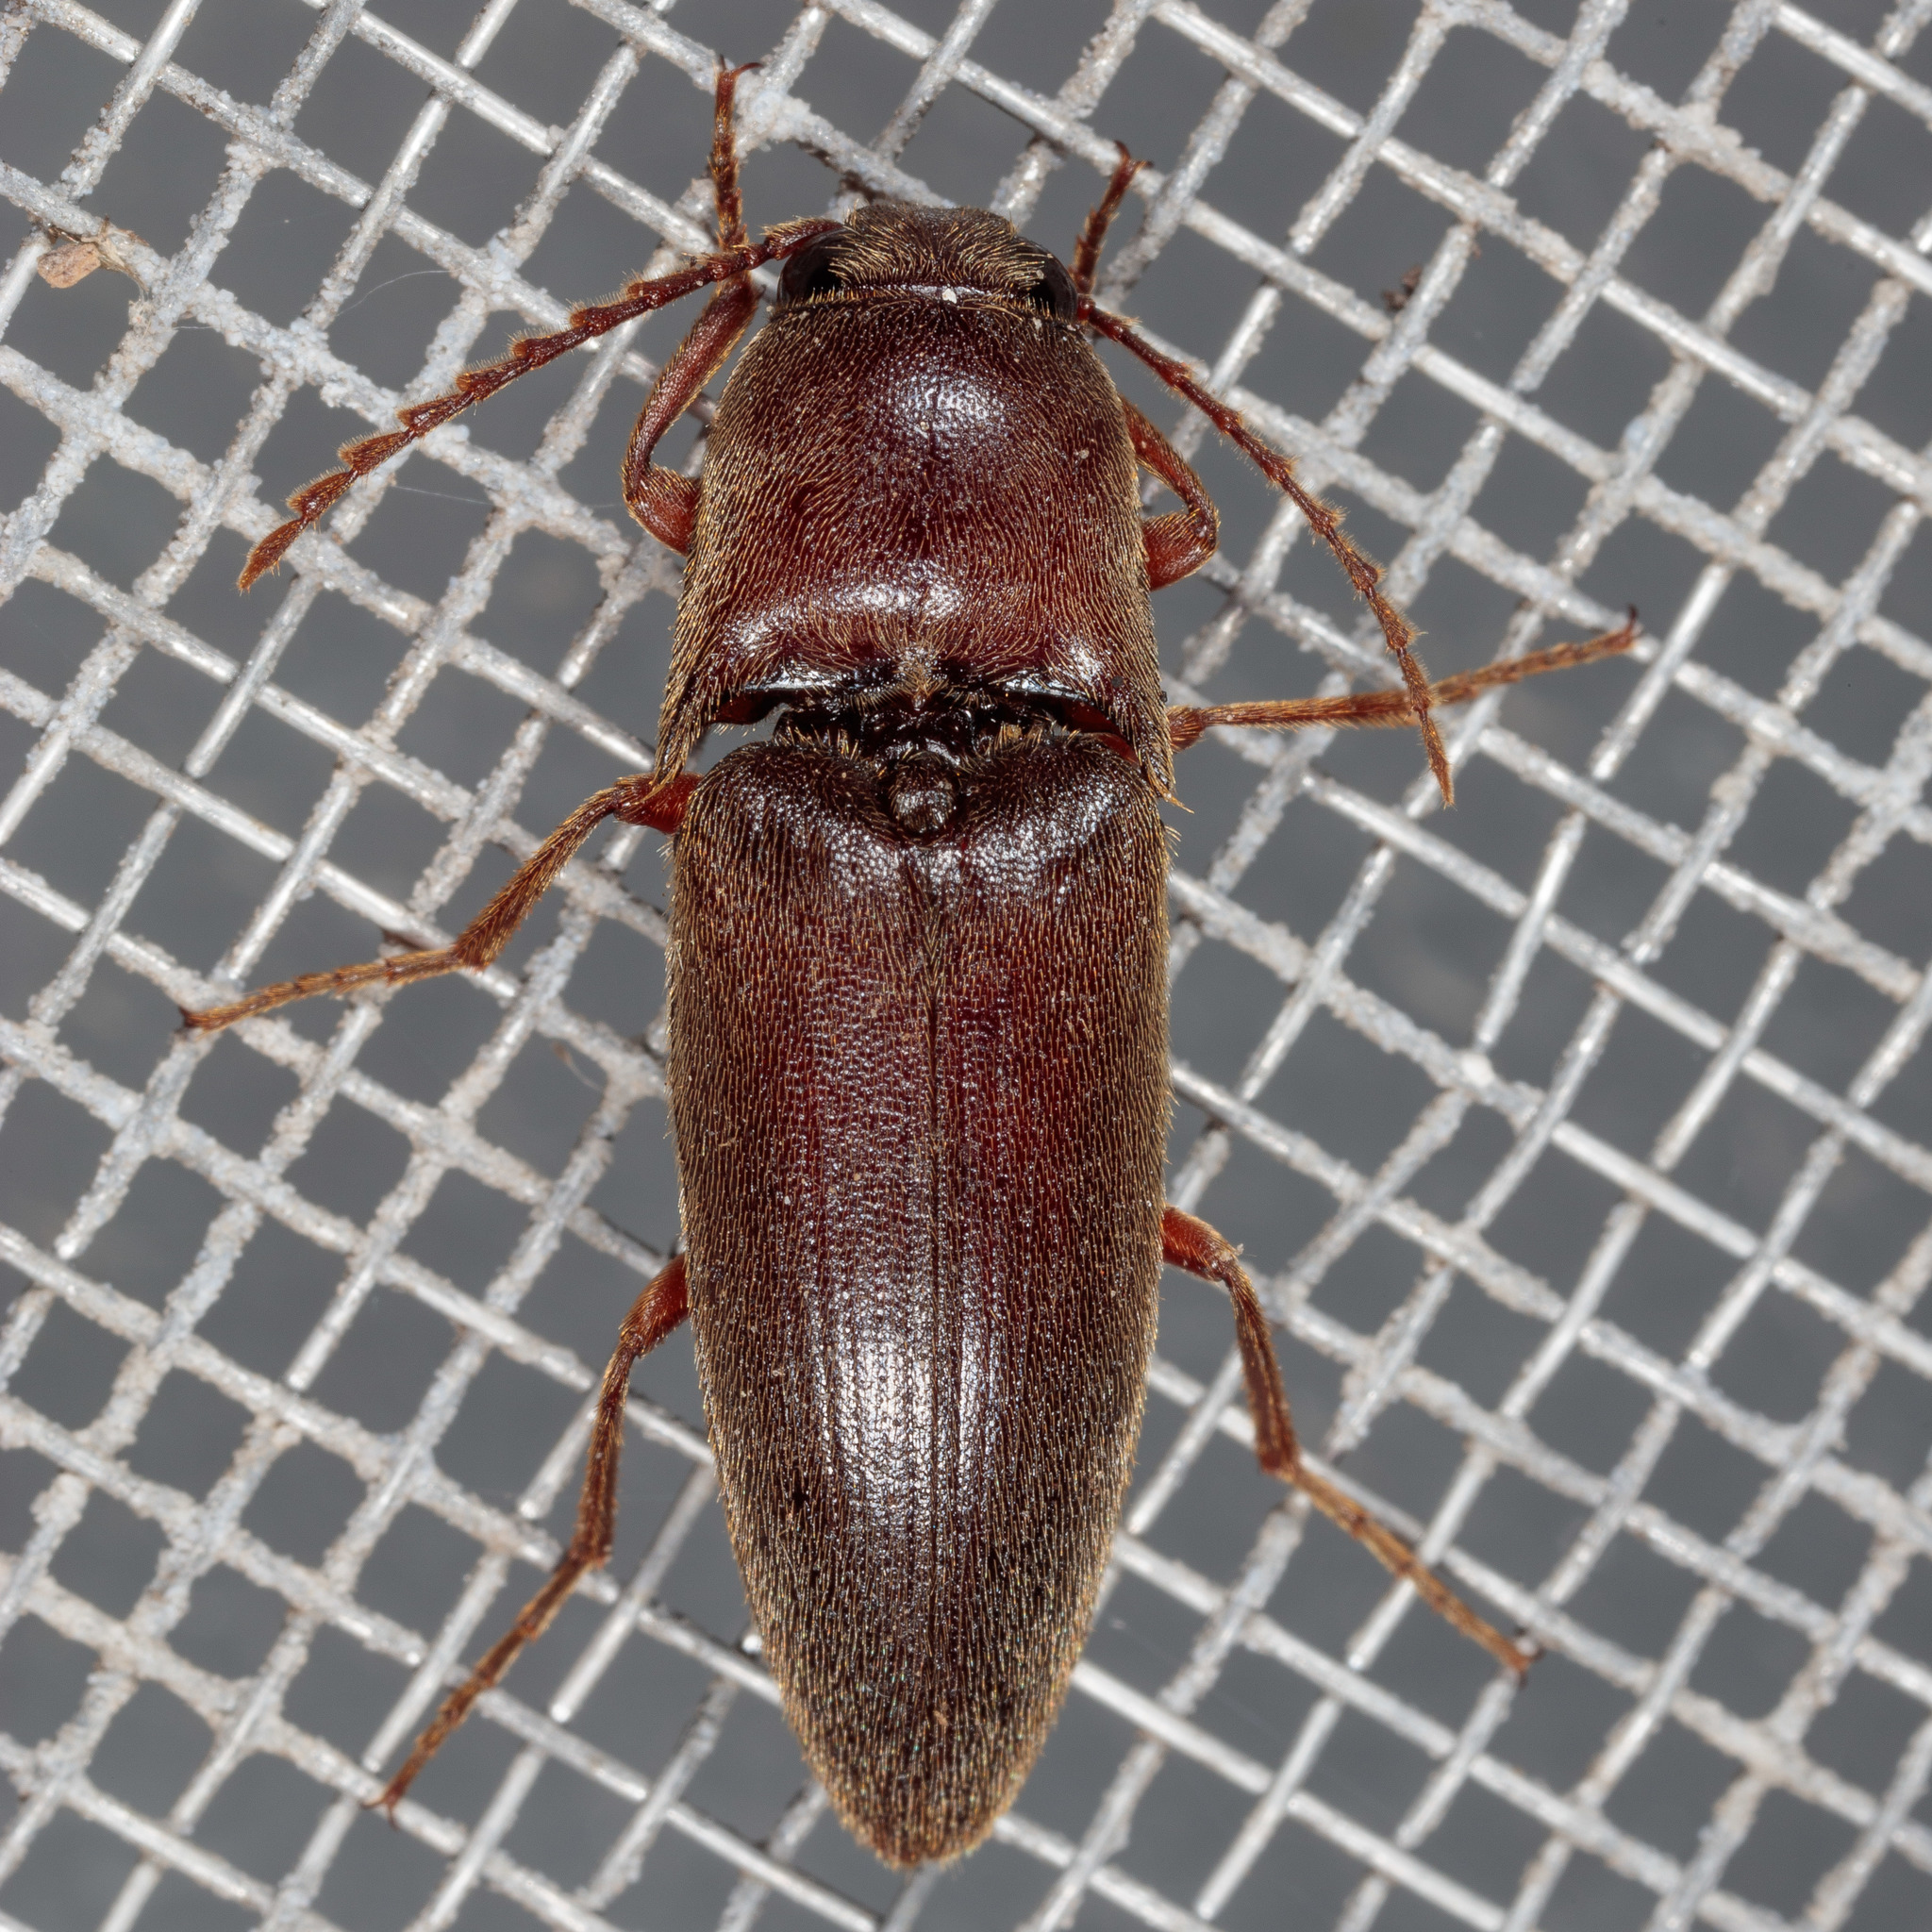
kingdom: Animalia
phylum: Arthropoda
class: Insecta
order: Coleoptera
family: Elateridae
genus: Diplostethus
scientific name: Diplostethus
